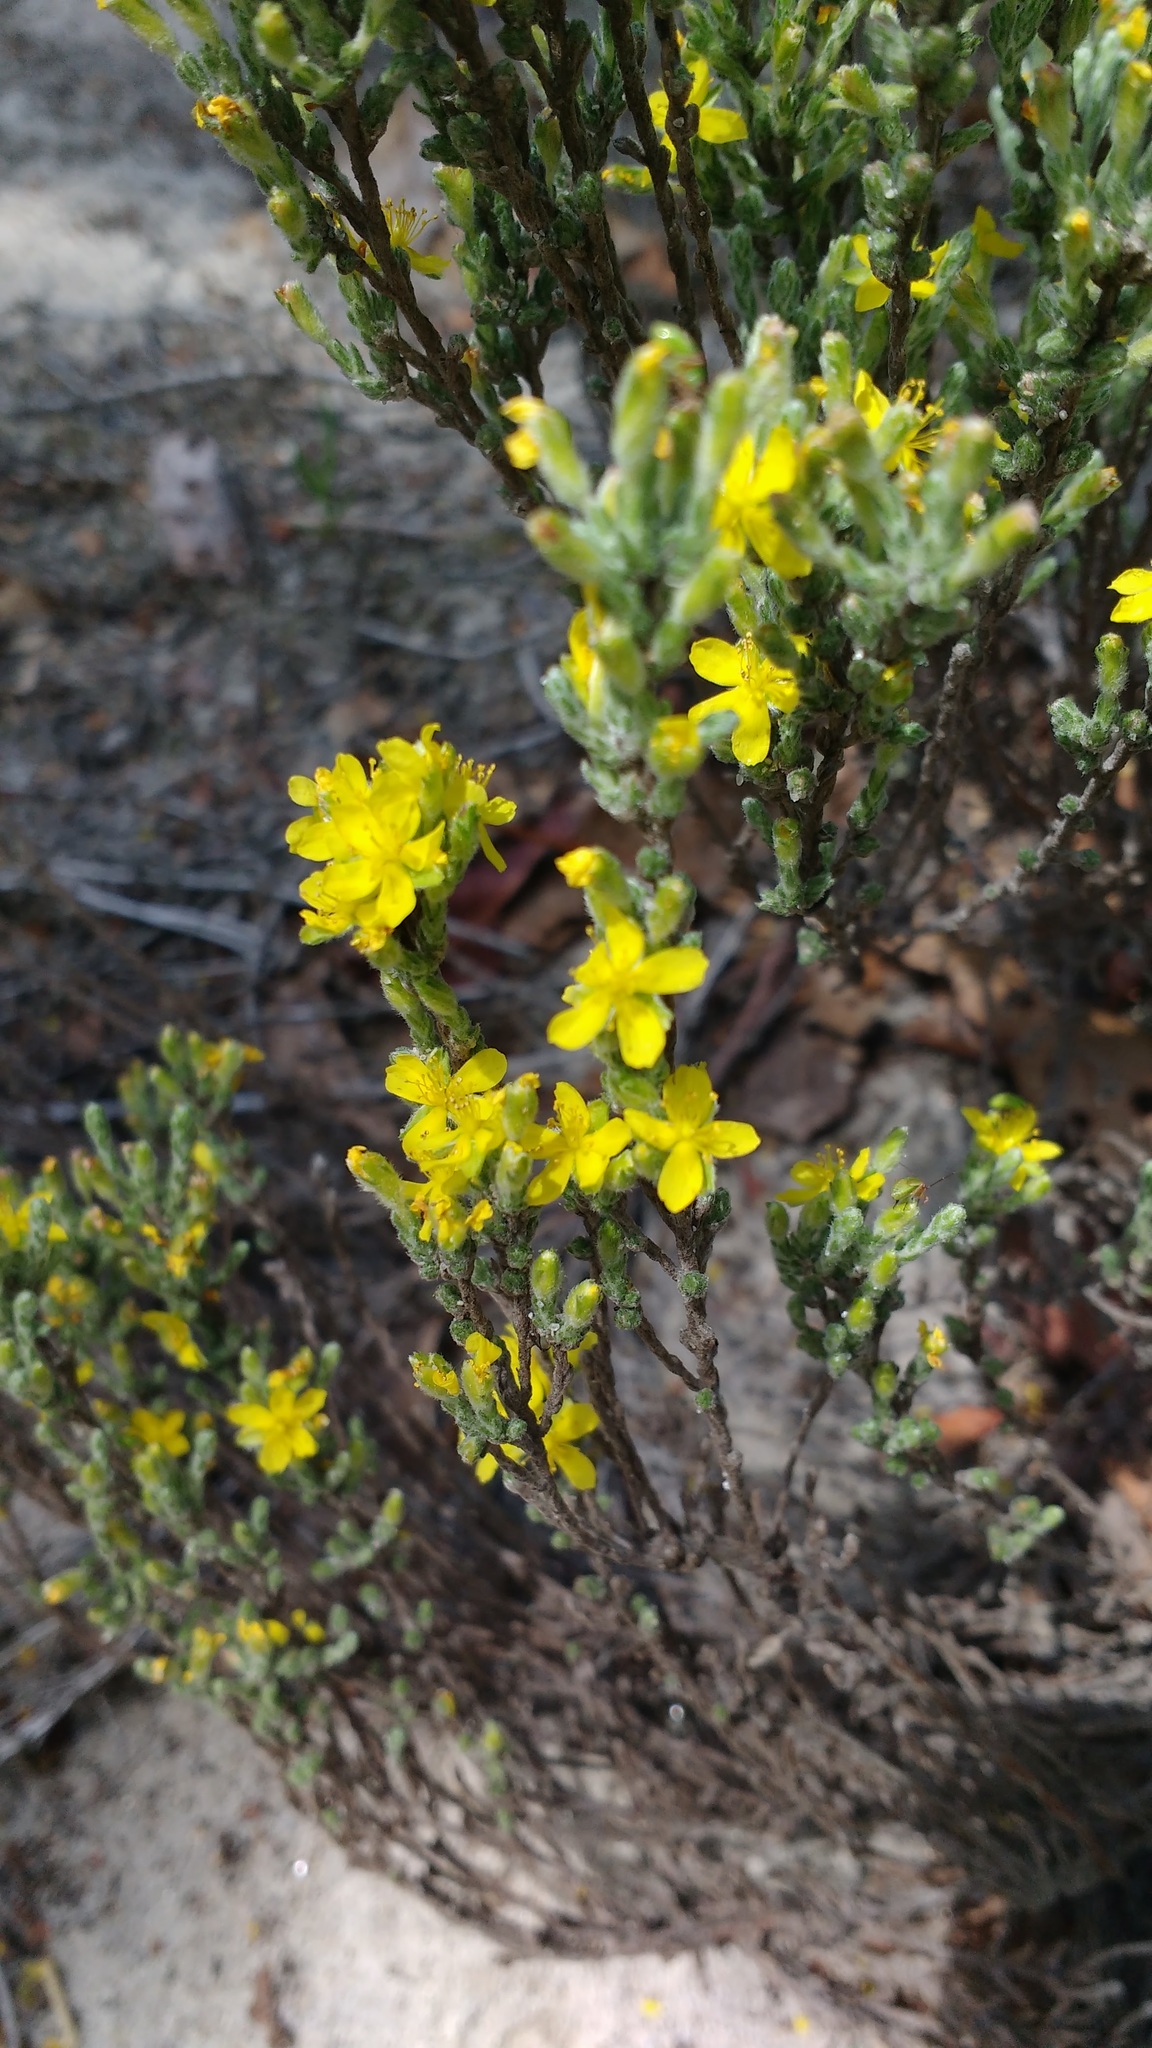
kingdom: Plantae
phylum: Tracheophyta
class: Magnoliopsida
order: Malvales
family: Cistaceae
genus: Hudsonia
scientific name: Hudsonia tomentosa
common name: Beach-heath
